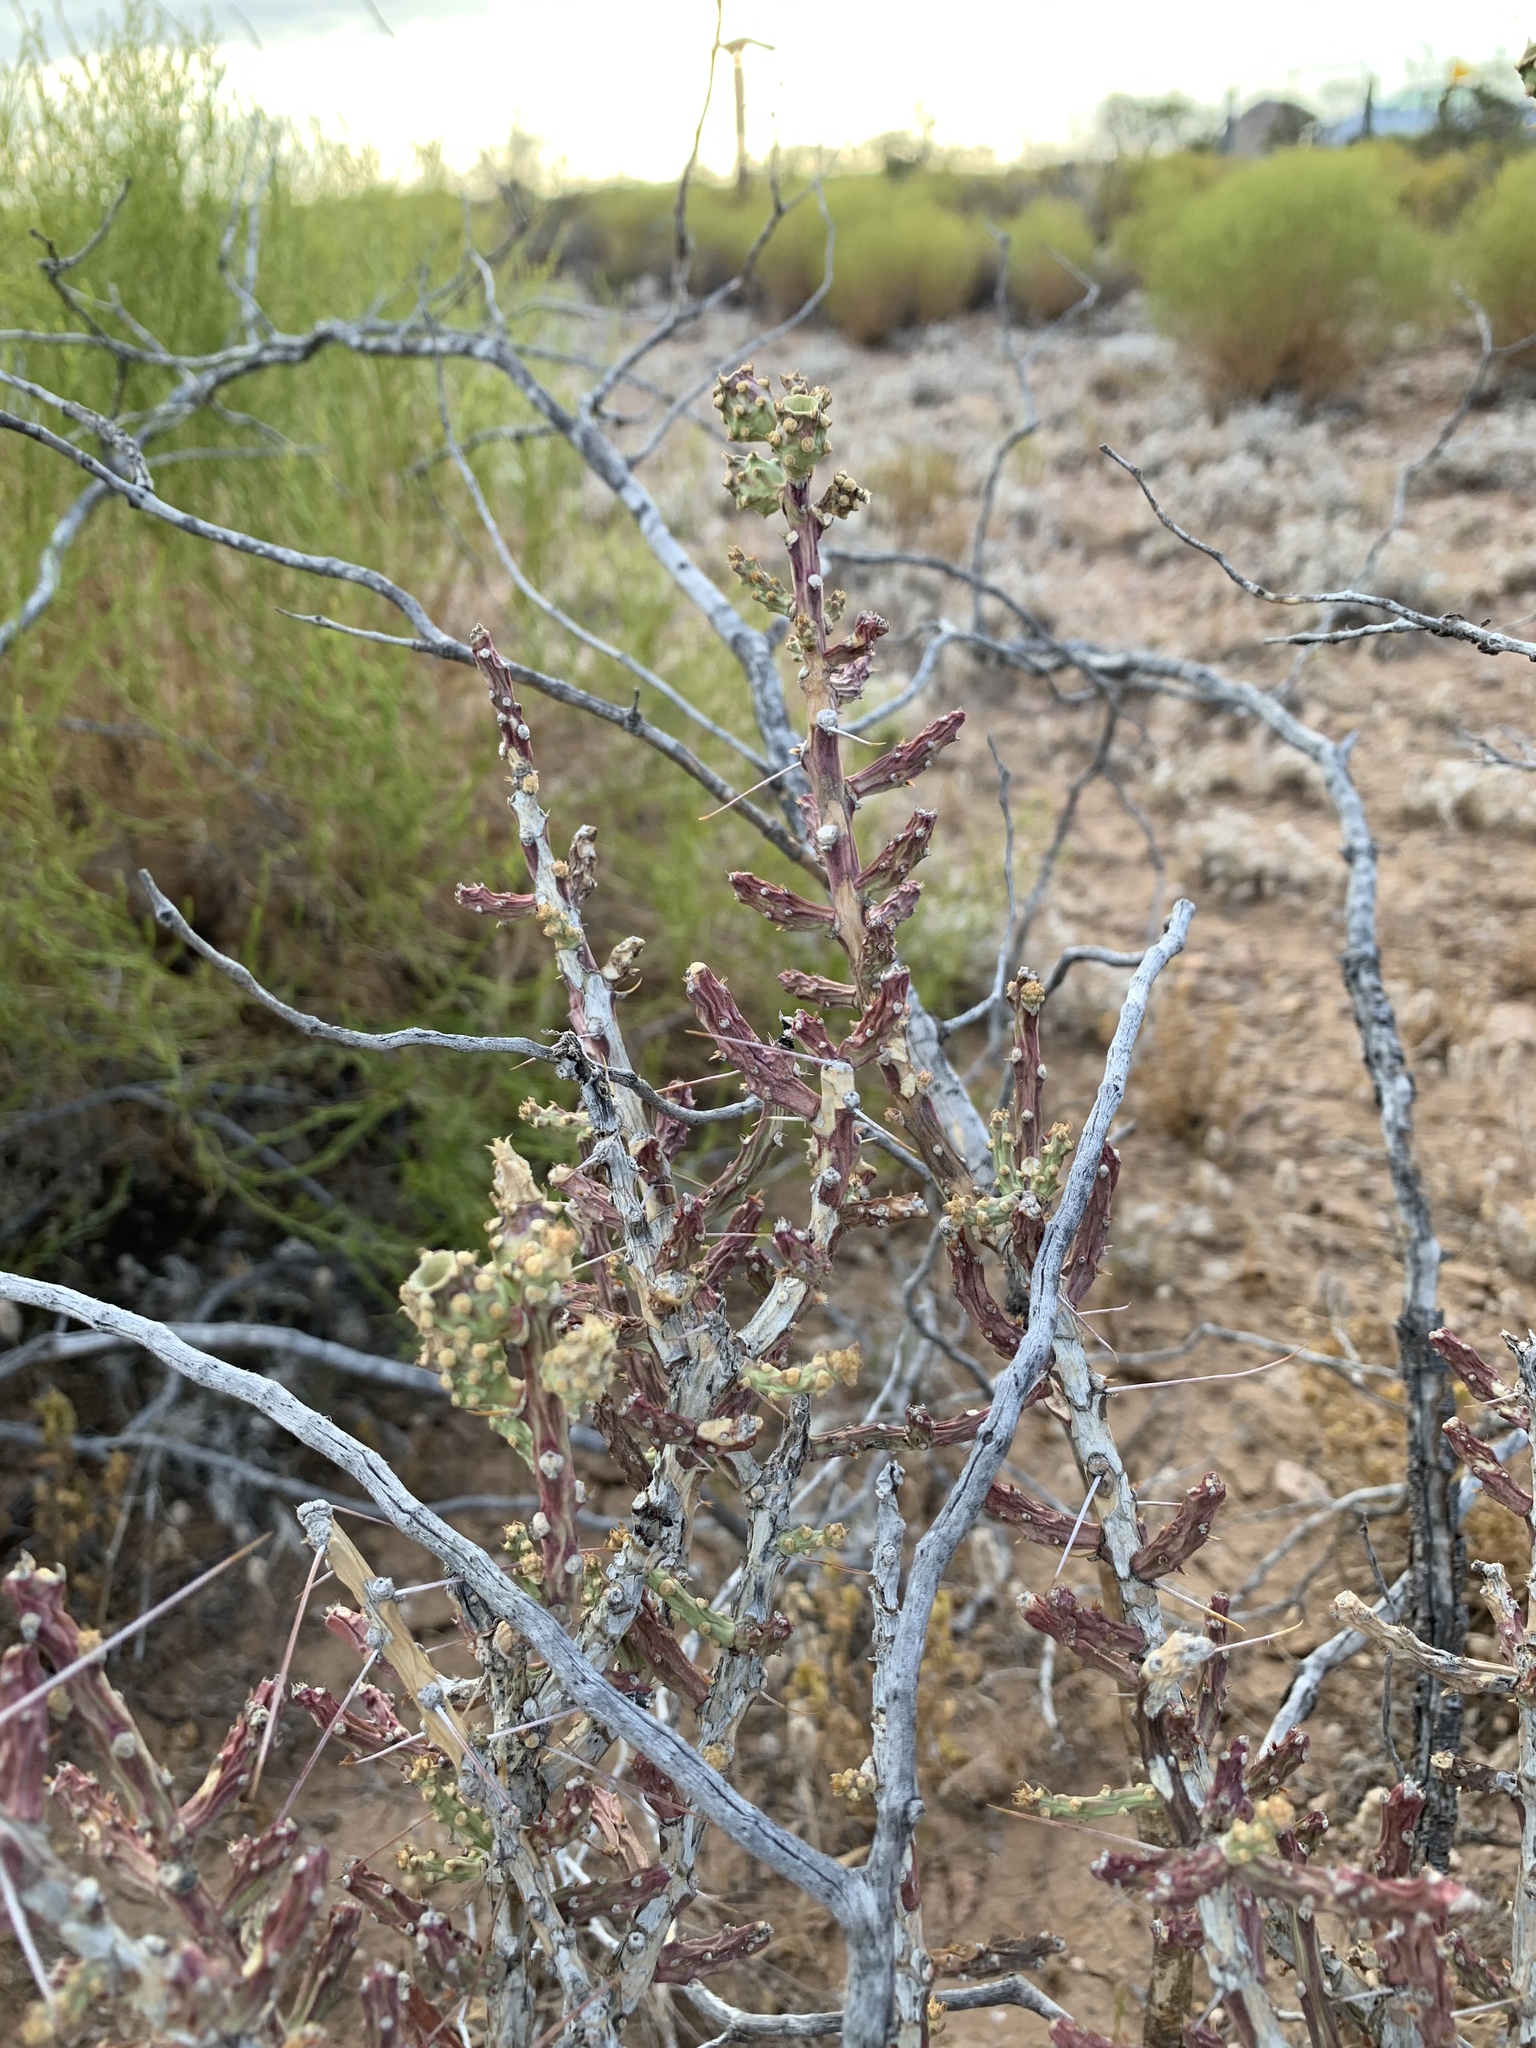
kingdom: Plantae
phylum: Tracheophyta
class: Magnoliopsida
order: Caryophyllales
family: Cactaceae
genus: Cylindropuntia
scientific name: Cylindropuntia leptocaulis
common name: Christmas cactus
